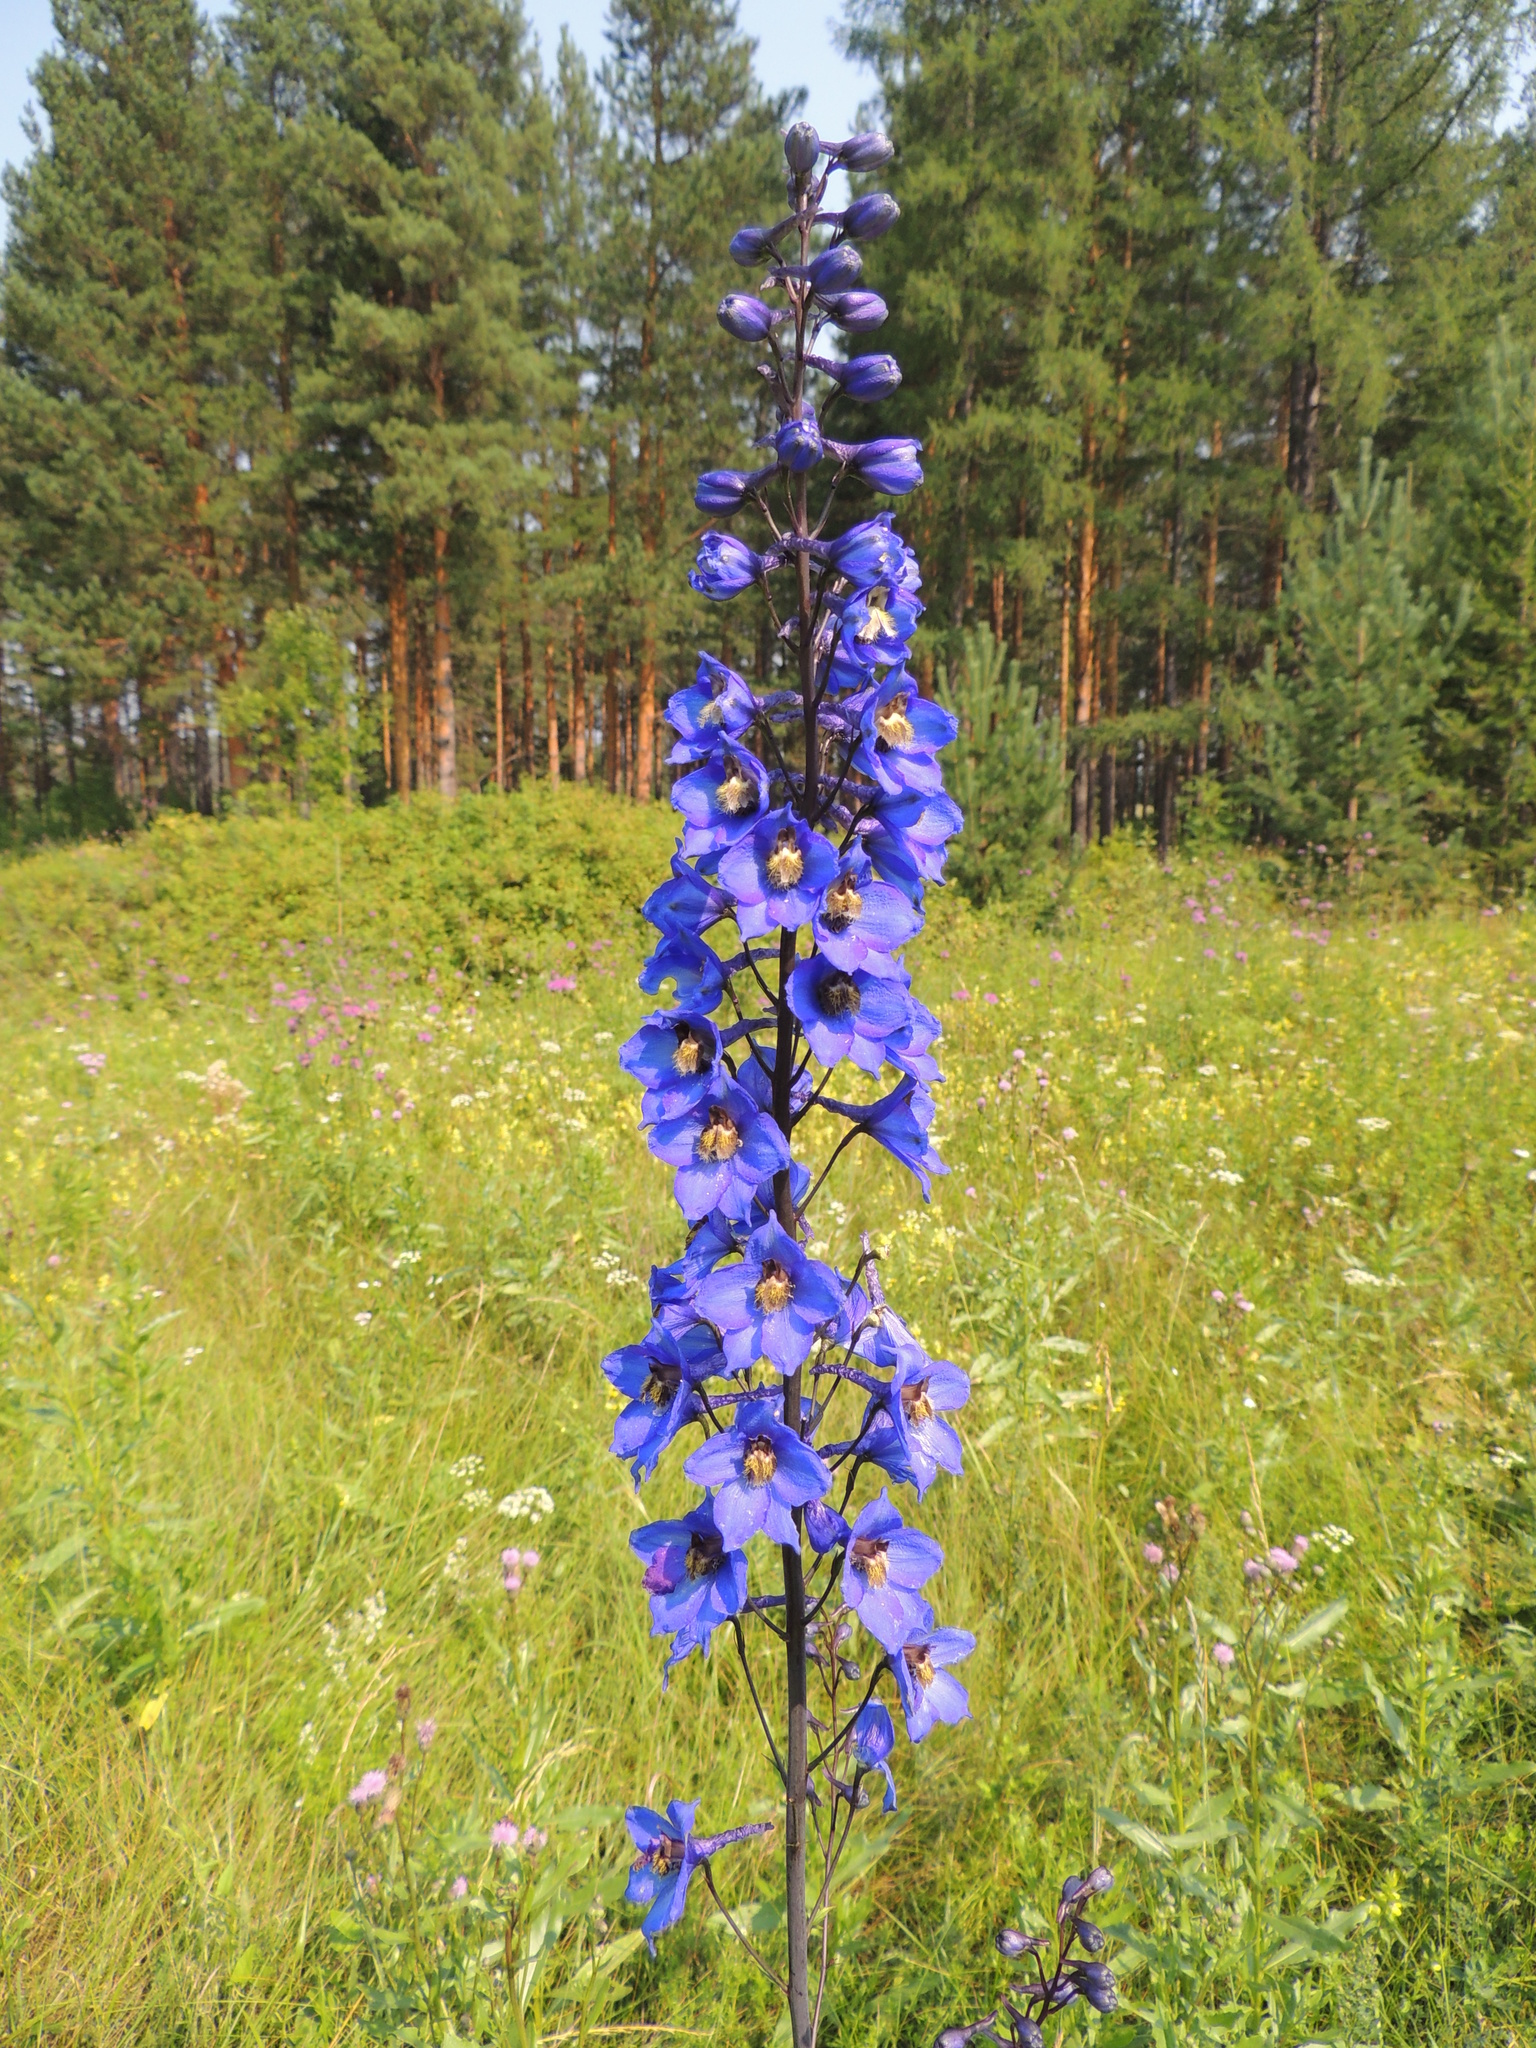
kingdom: Plantae
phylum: Tracheophyta
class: Magnoliopsida
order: Ranunculales
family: Ranunculaceae
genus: Delphinium
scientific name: Delphinium elatum
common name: Candle larkspur
